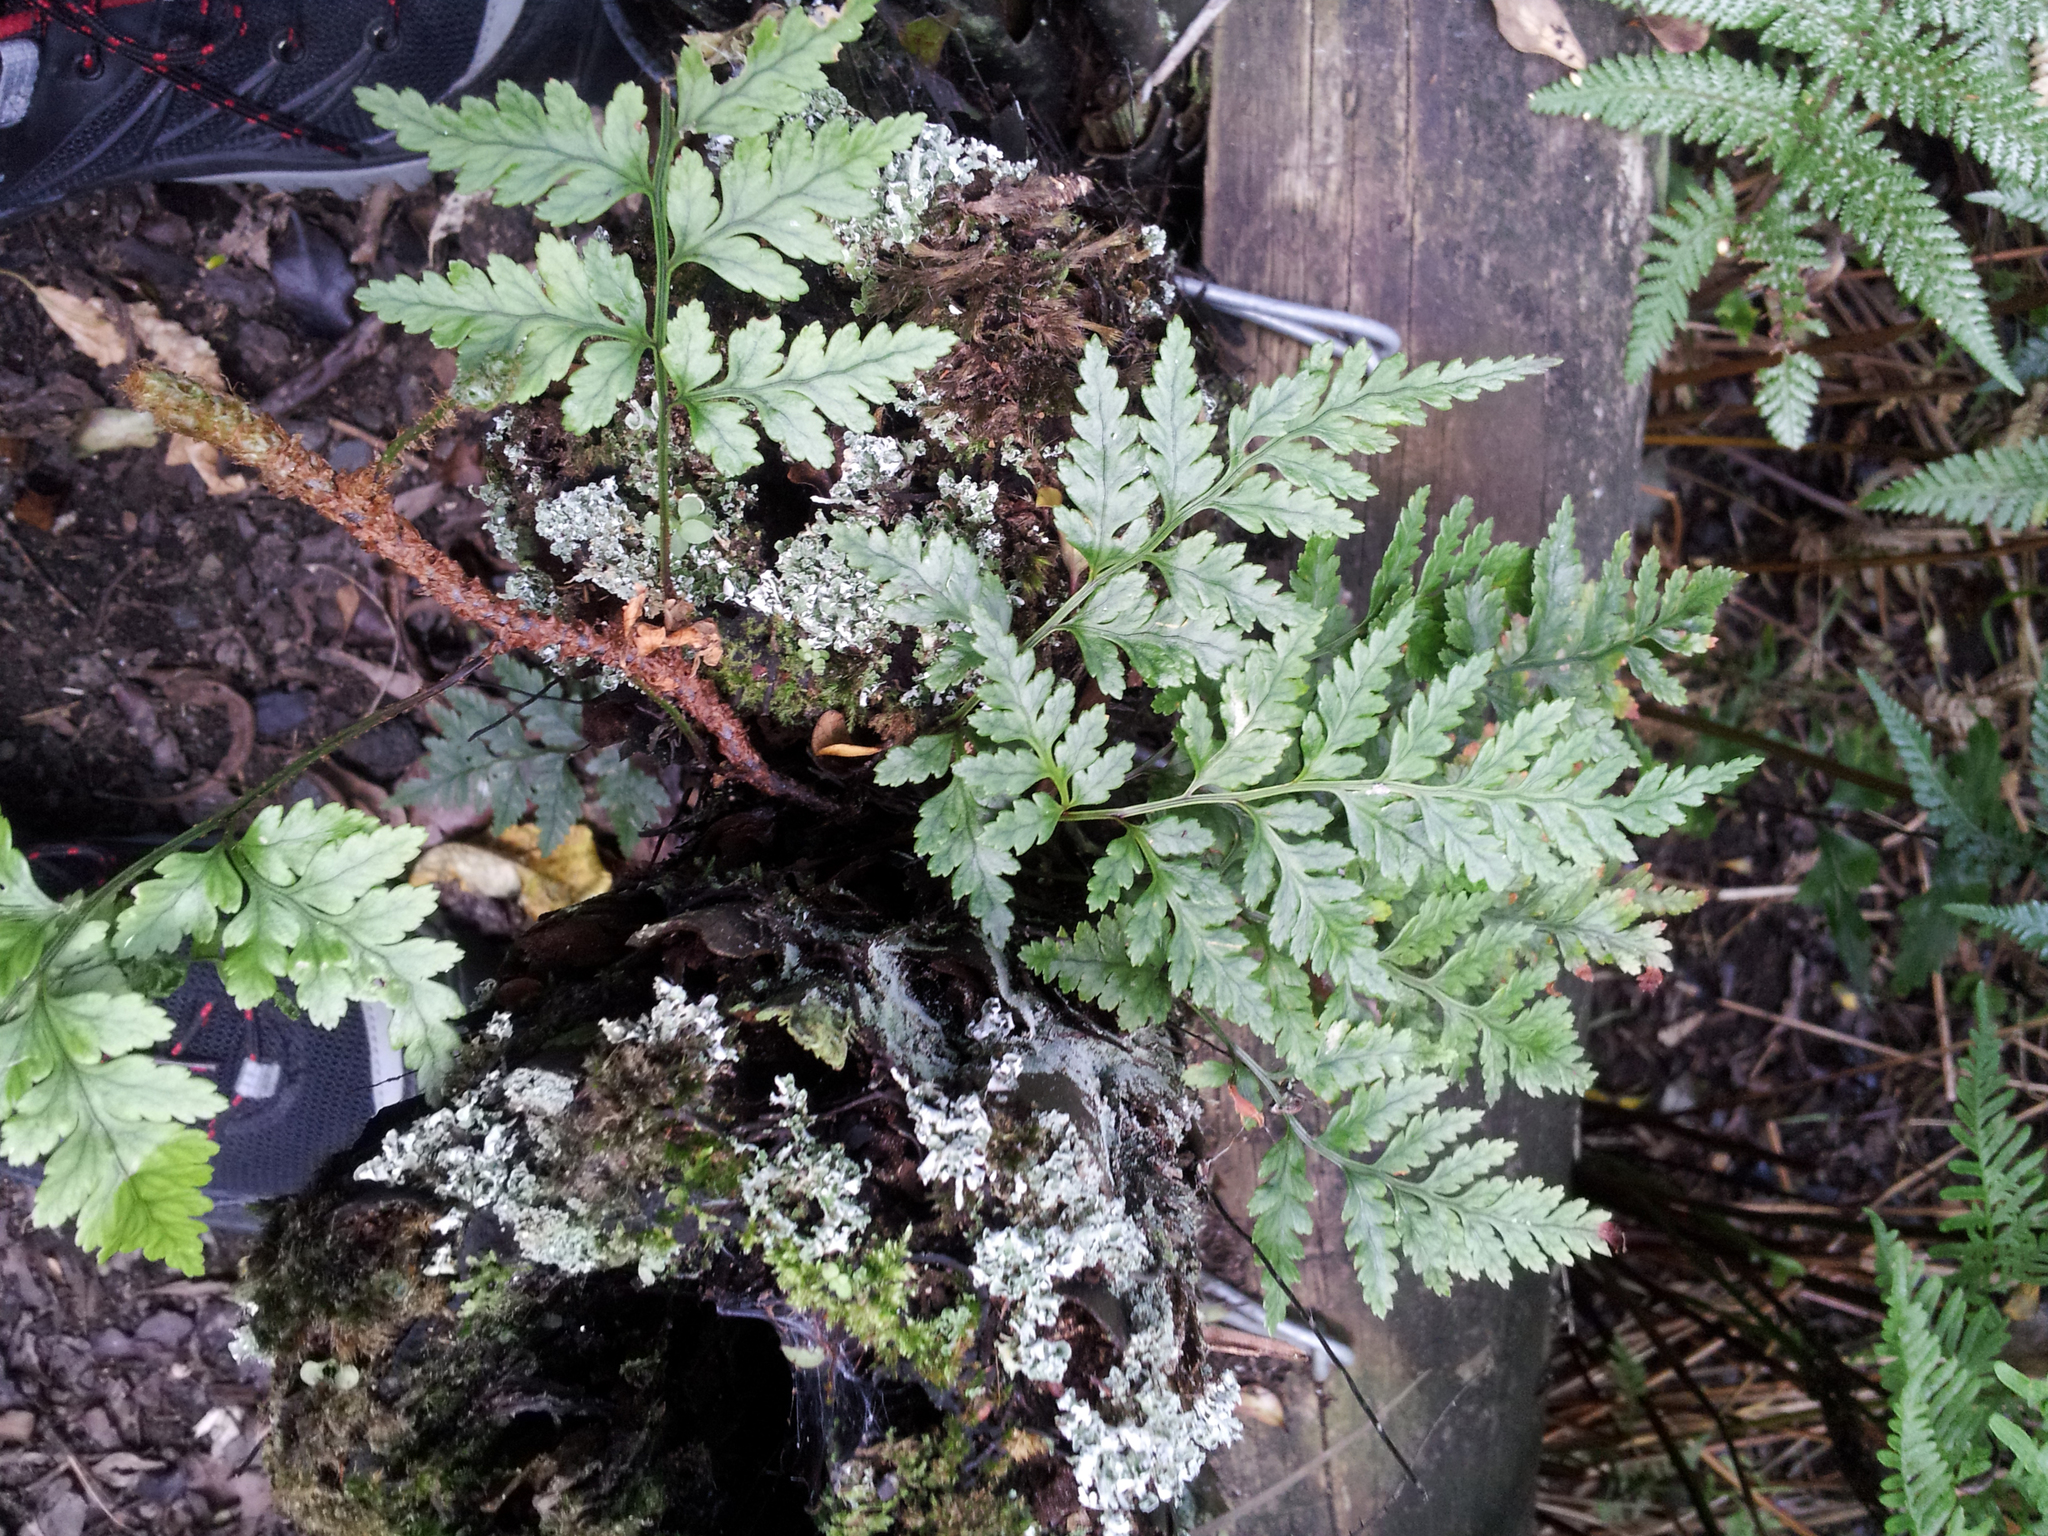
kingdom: Plantae
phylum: Tracheophyta
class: Polypodiopsida
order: Polypodiales
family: Dryopteridaceae
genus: Rumohra
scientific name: Rumohra adiantiformis
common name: Leather fern
